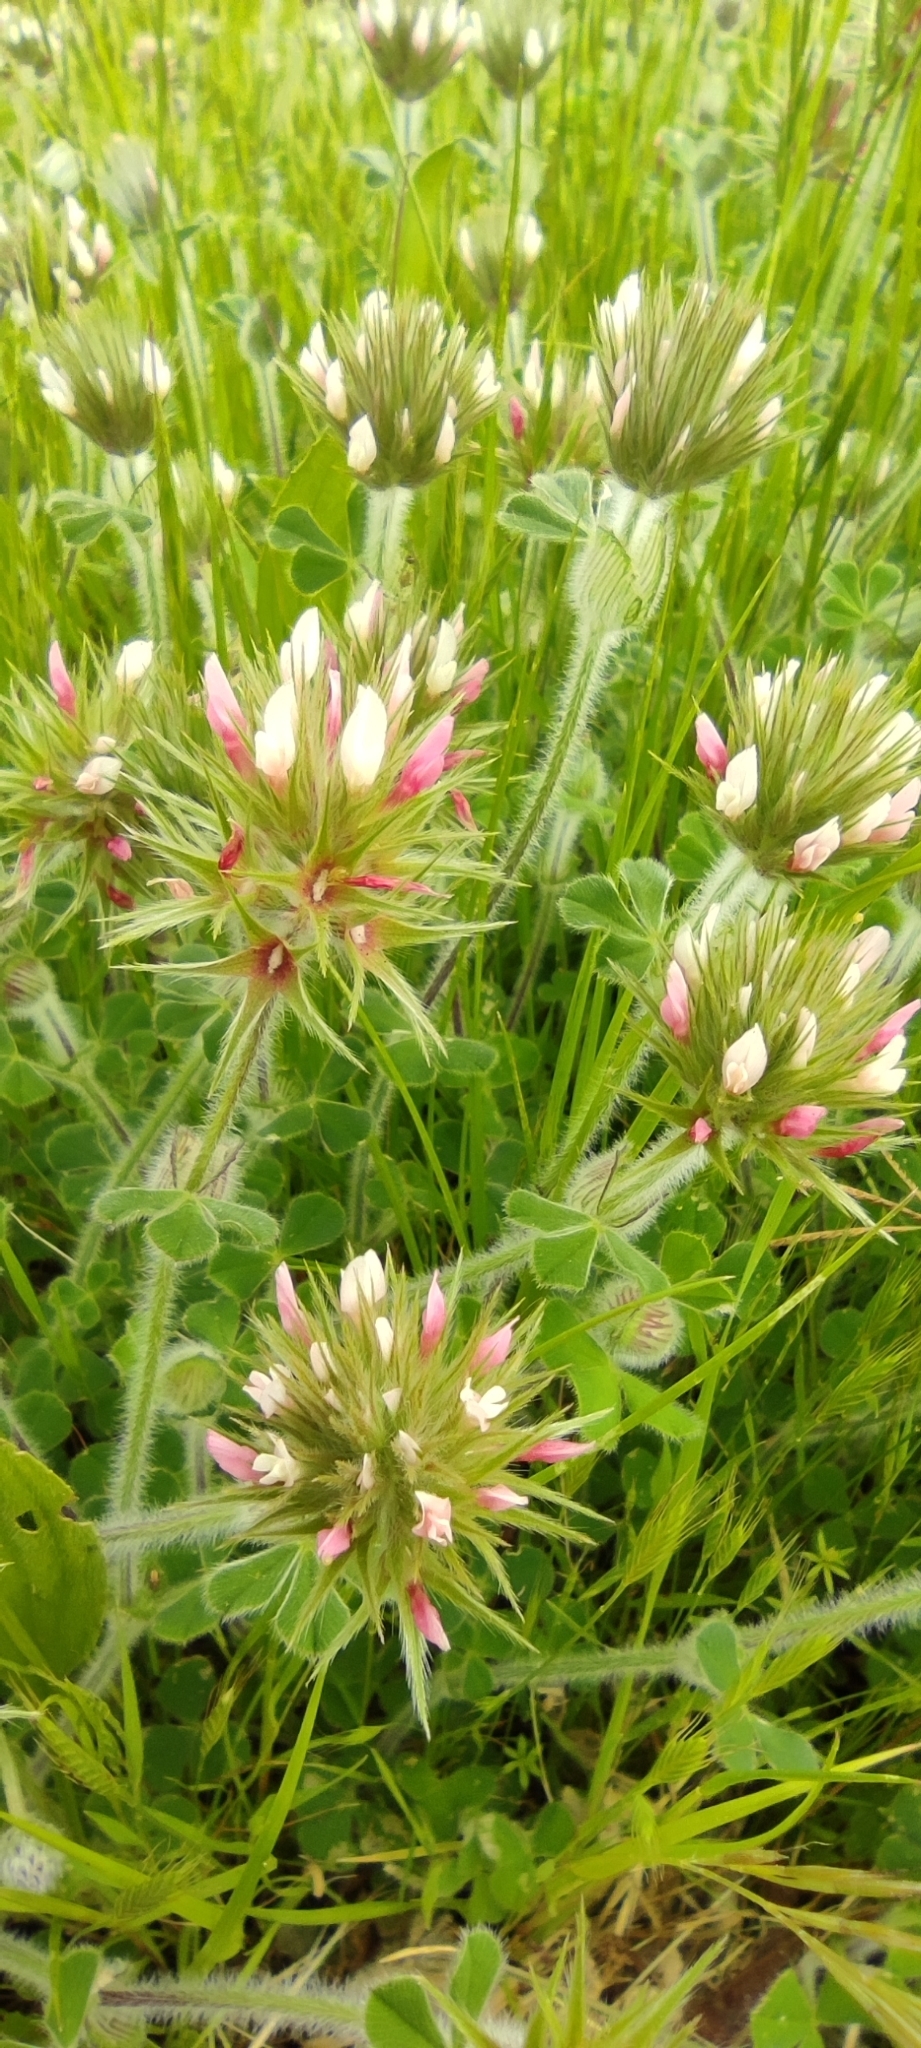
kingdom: Plantae
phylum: Tracheophyta
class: Magnoliopsida
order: Fabales
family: Fabaceae
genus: Trifolium
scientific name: Trifolium stellatum
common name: Starry clover
